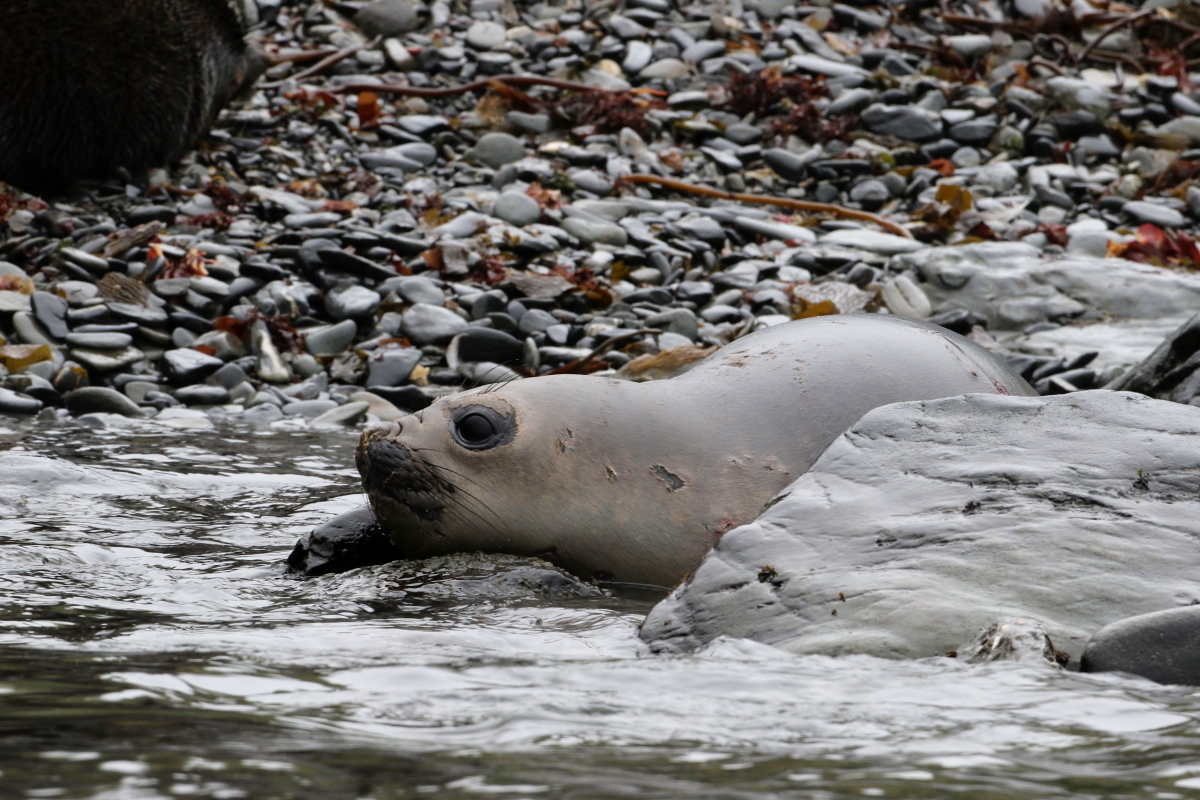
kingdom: Animalia
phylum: Chordata
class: Mammalia
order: Carnivora
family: Phocidae
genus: Mirounga
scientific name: Mirounga leonina
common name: Southern elephant seal
